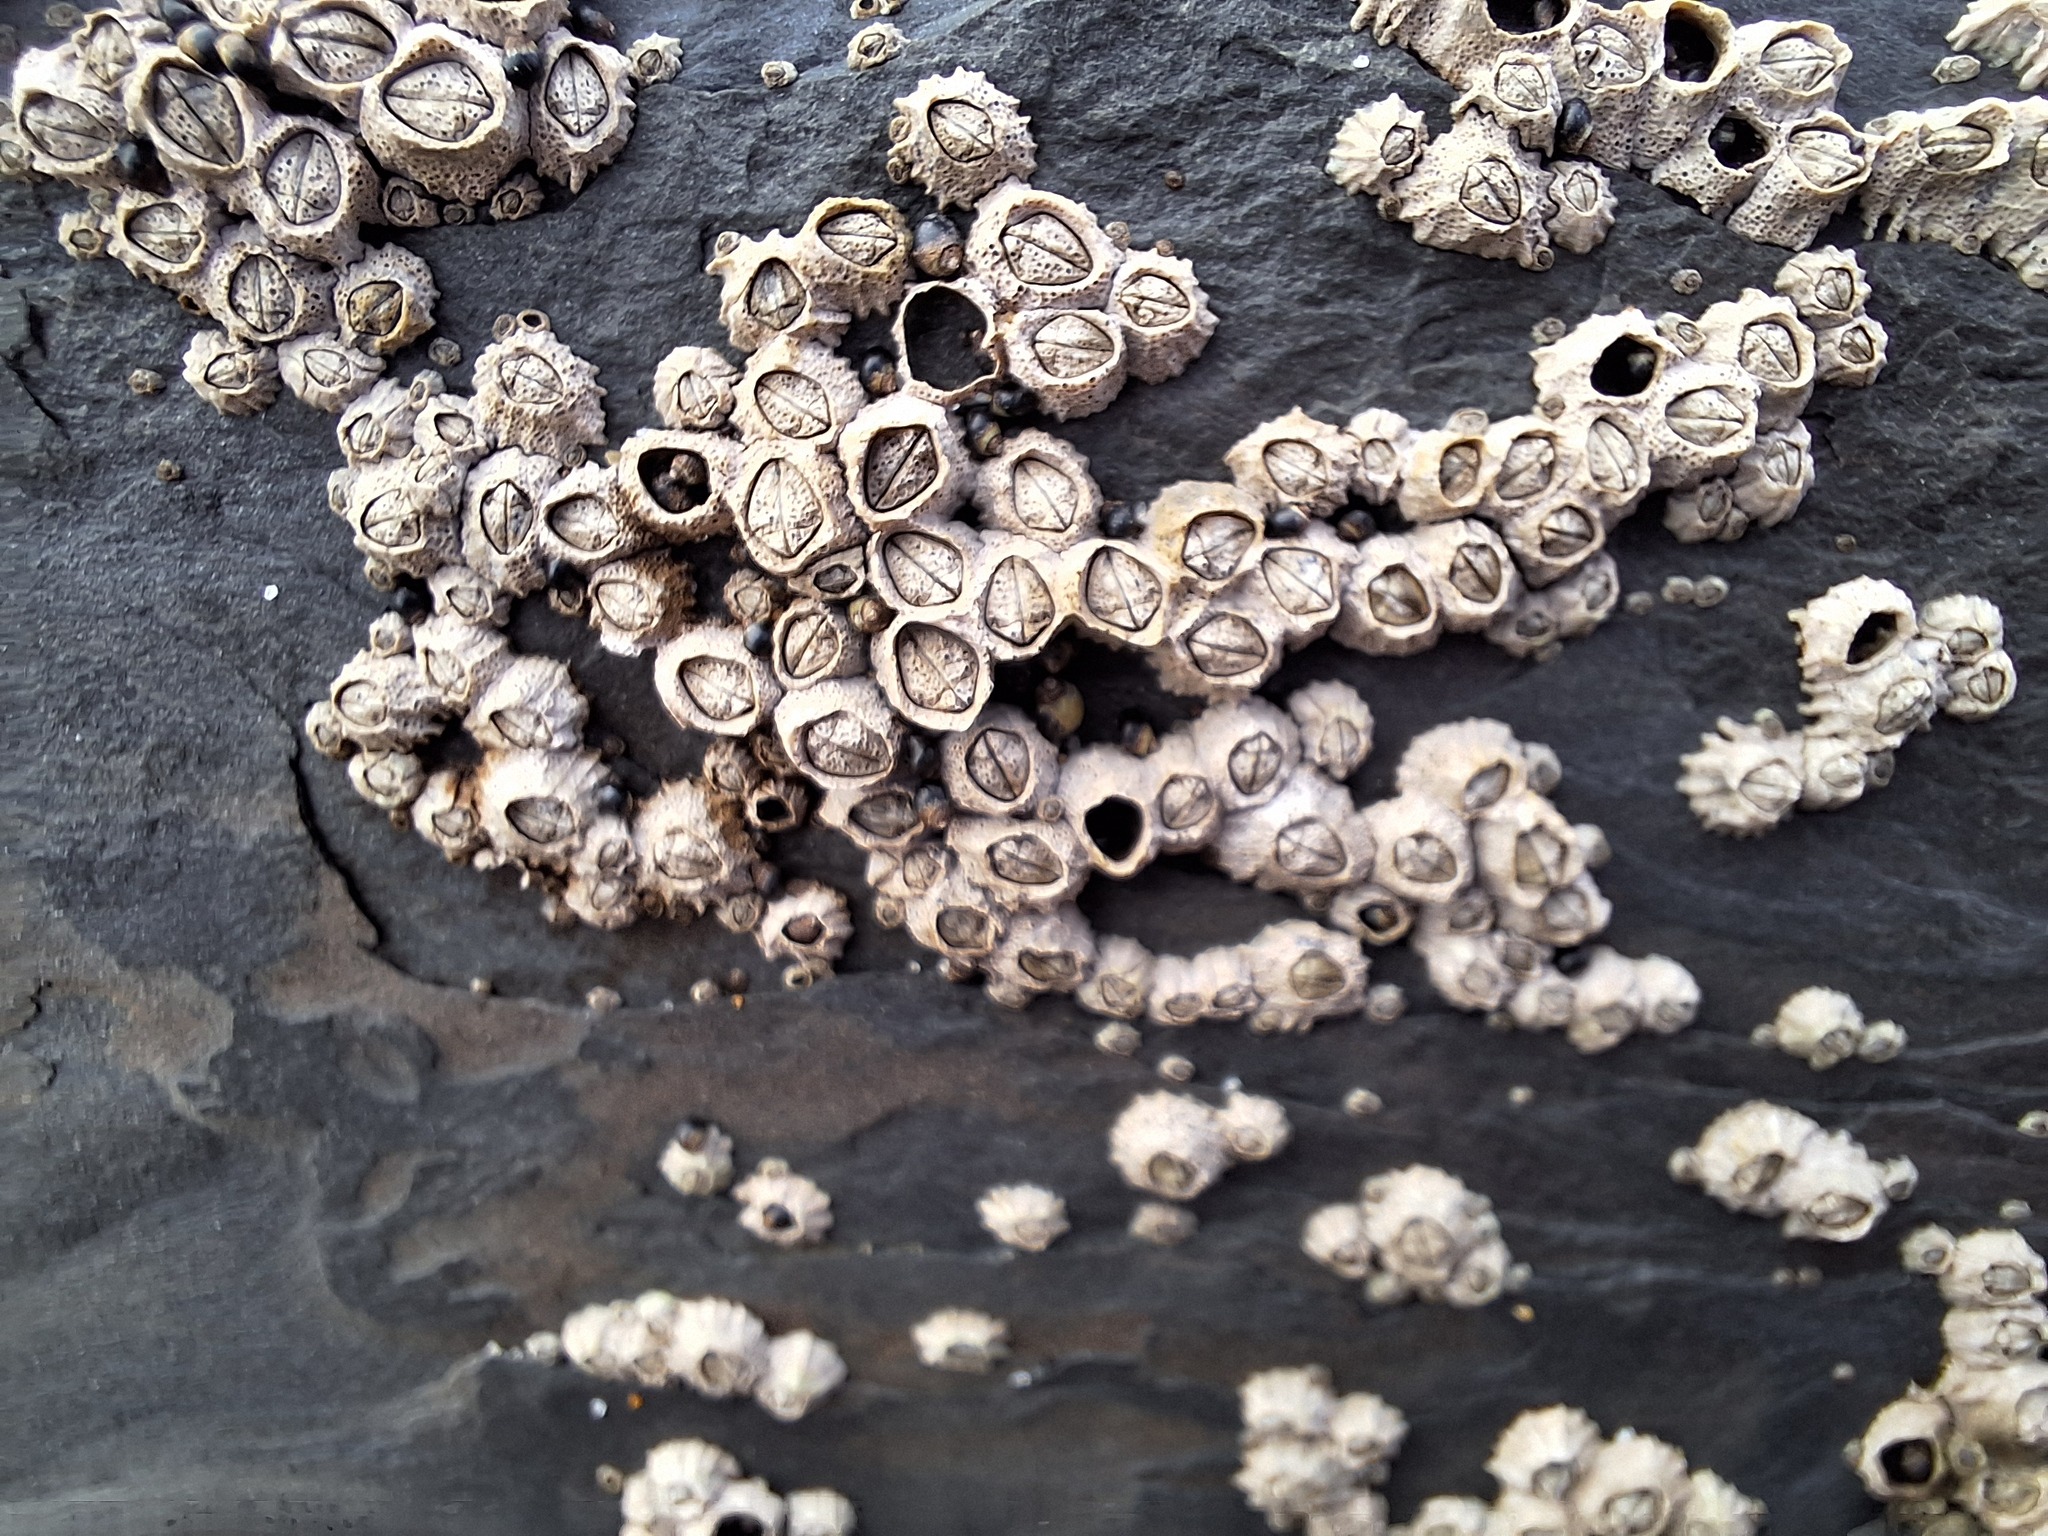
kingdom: Animalia
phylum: Arthropoda
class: Maxillopoda
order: Sessilia
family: Chthamalidae
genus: Chthamalus
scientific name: Chthamalus montagui
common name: Montagu's stellate barnacle
